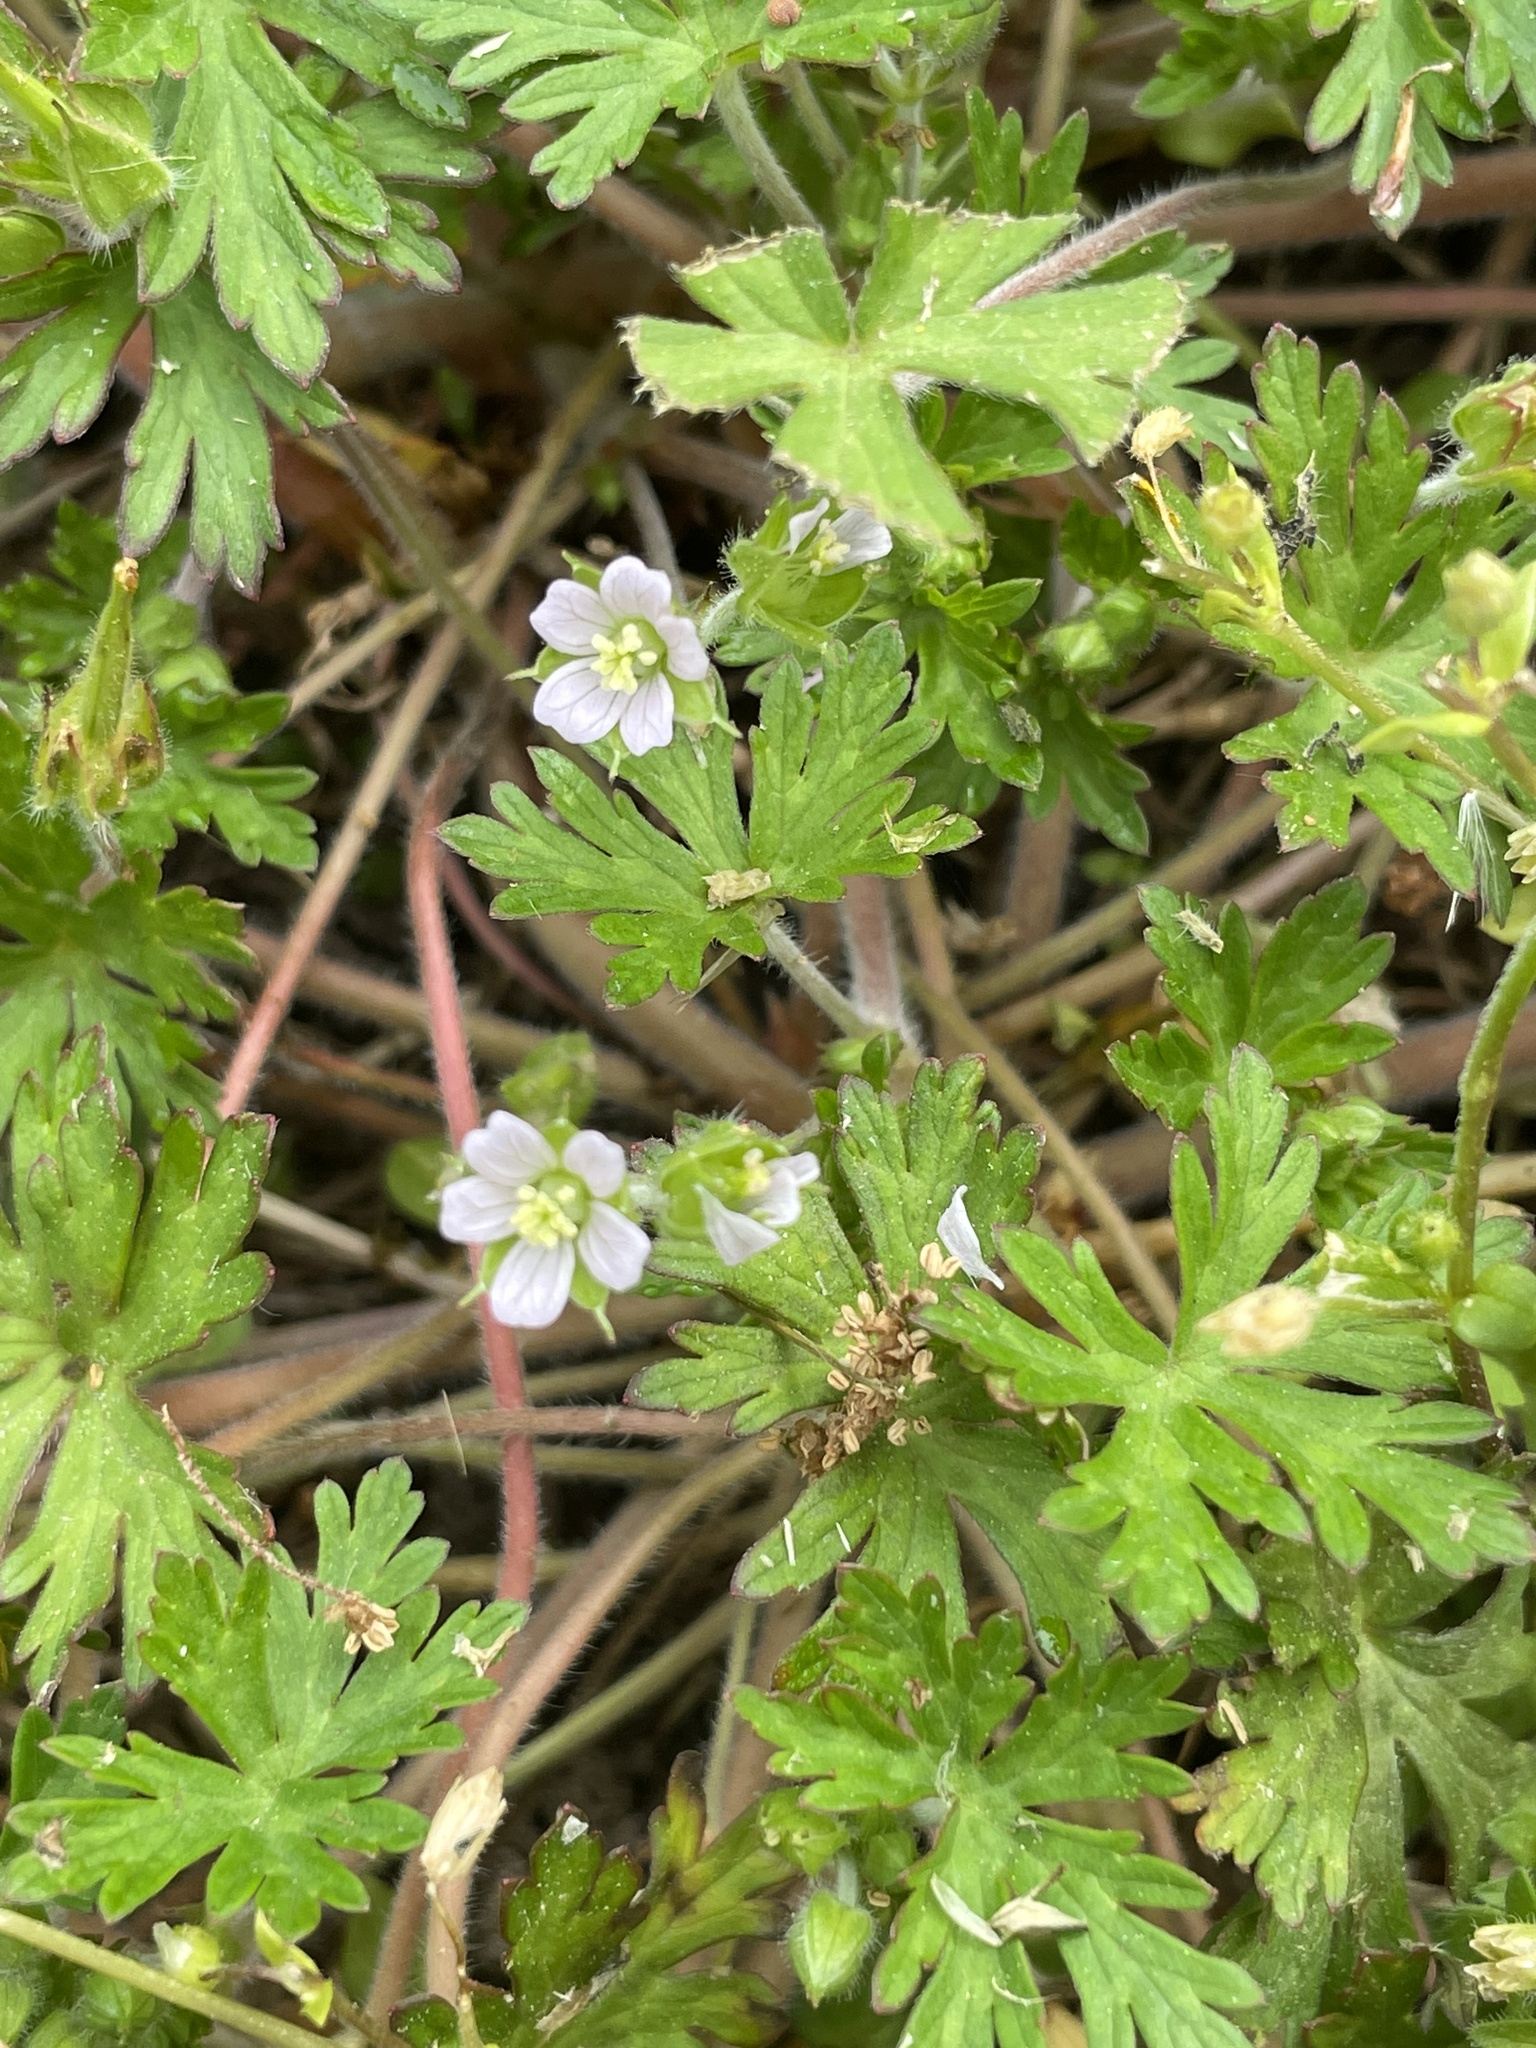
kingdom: Plantae
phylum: Tracheophyta
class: Magnoliopsida
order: Geraniales
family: Geraniaceae
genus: Geranium
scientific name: Geranium carolinianum
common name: Carolina crane's-bill
